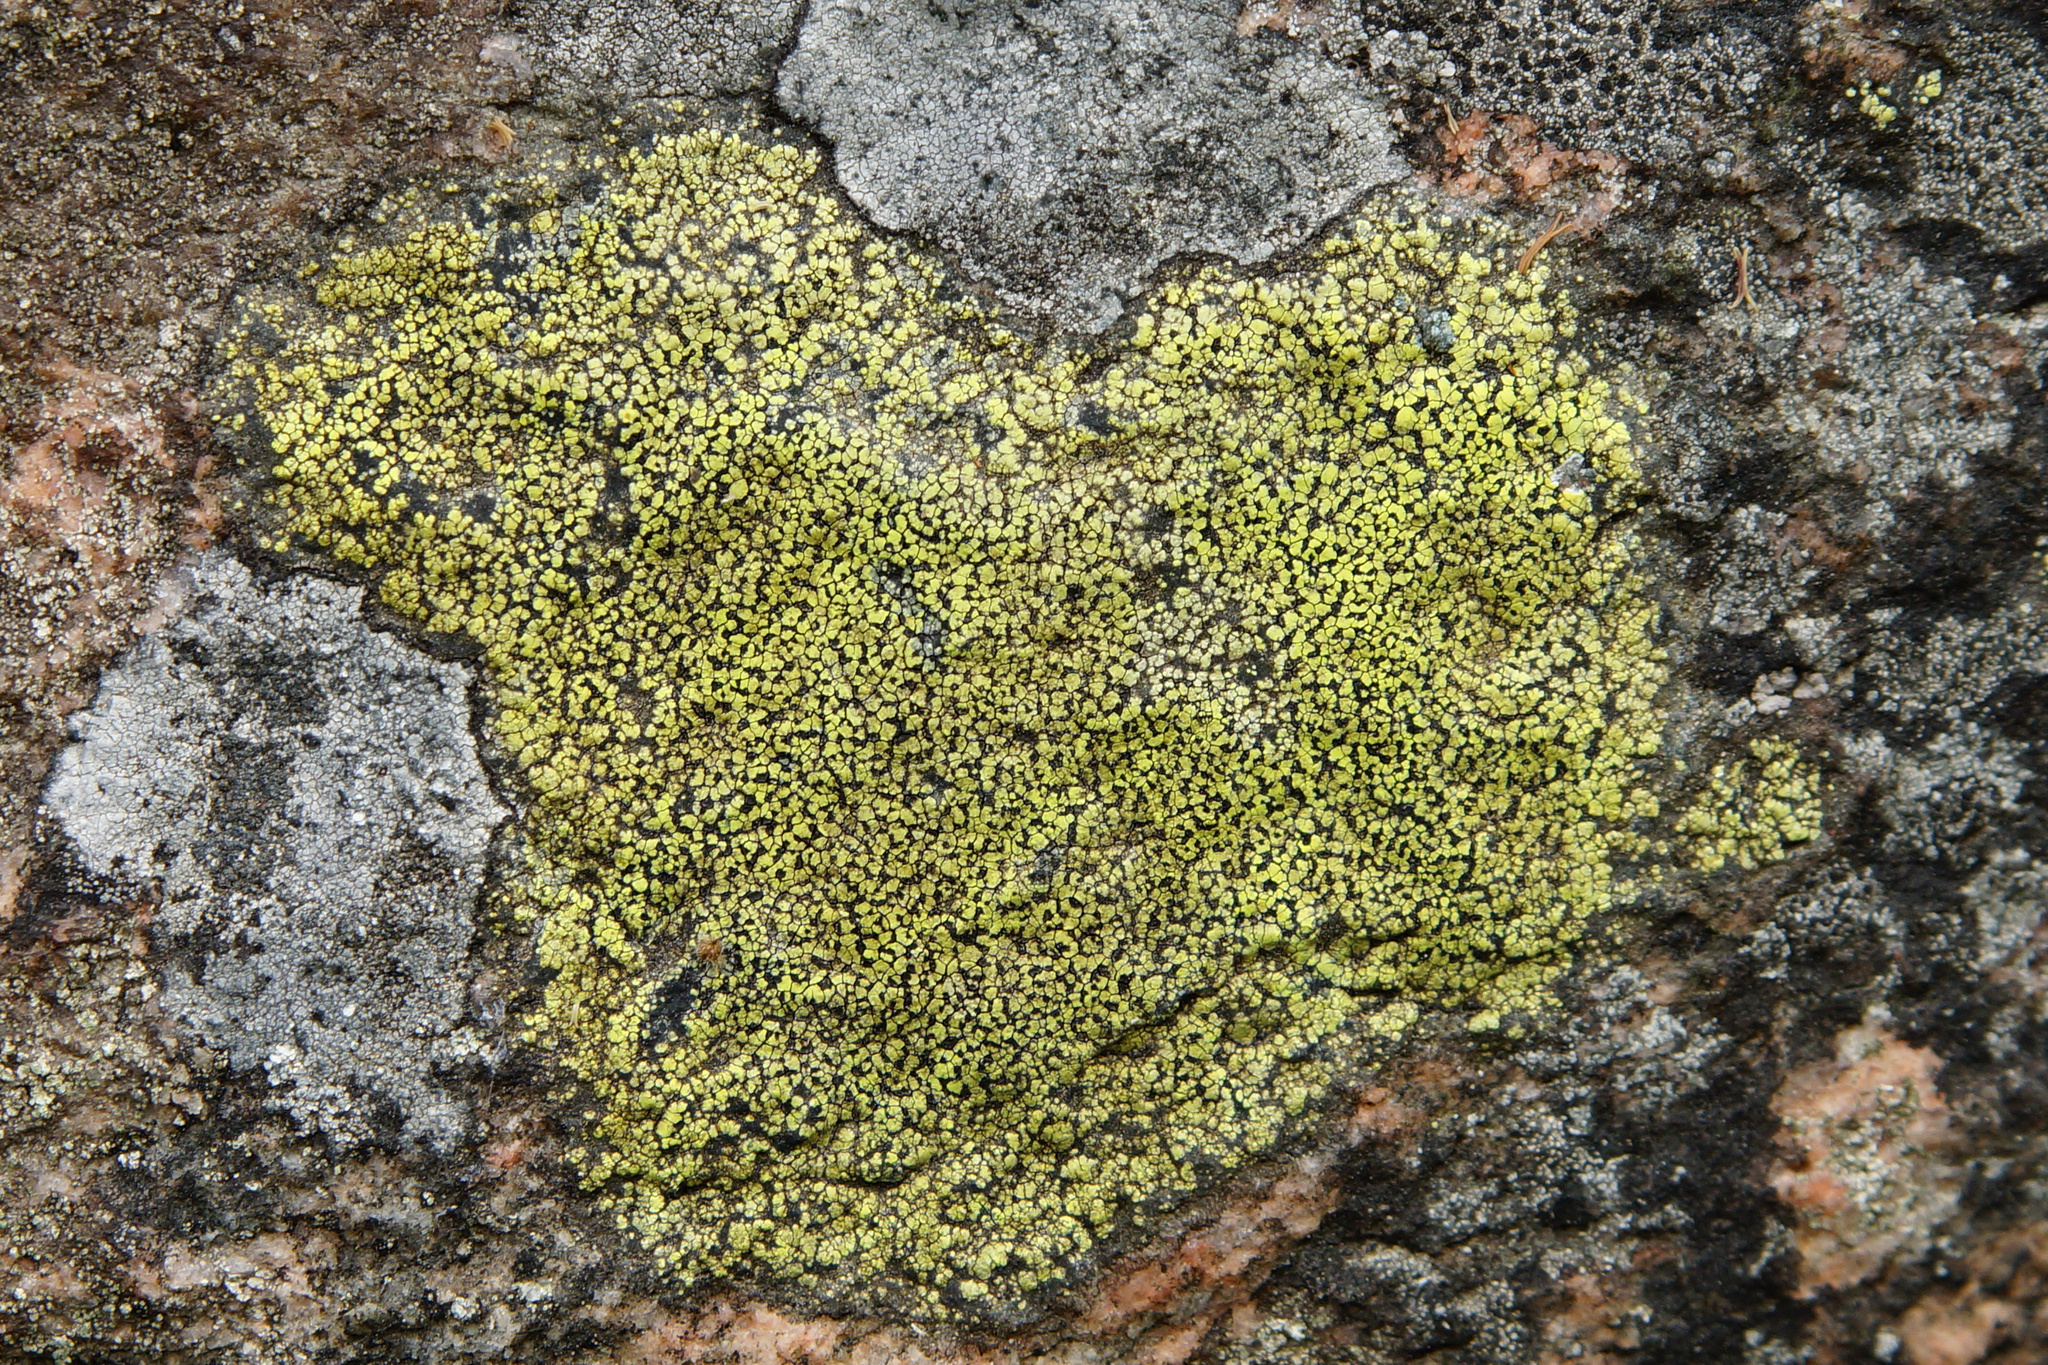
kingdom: Fungi
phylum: Ascomycota
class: Lecanoromycetes
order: Rhizocarpales
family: Rhizocarpaceae
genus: Rhizocarpon
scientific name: Rhizocarpon geographicum
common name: Yellow map lichen
